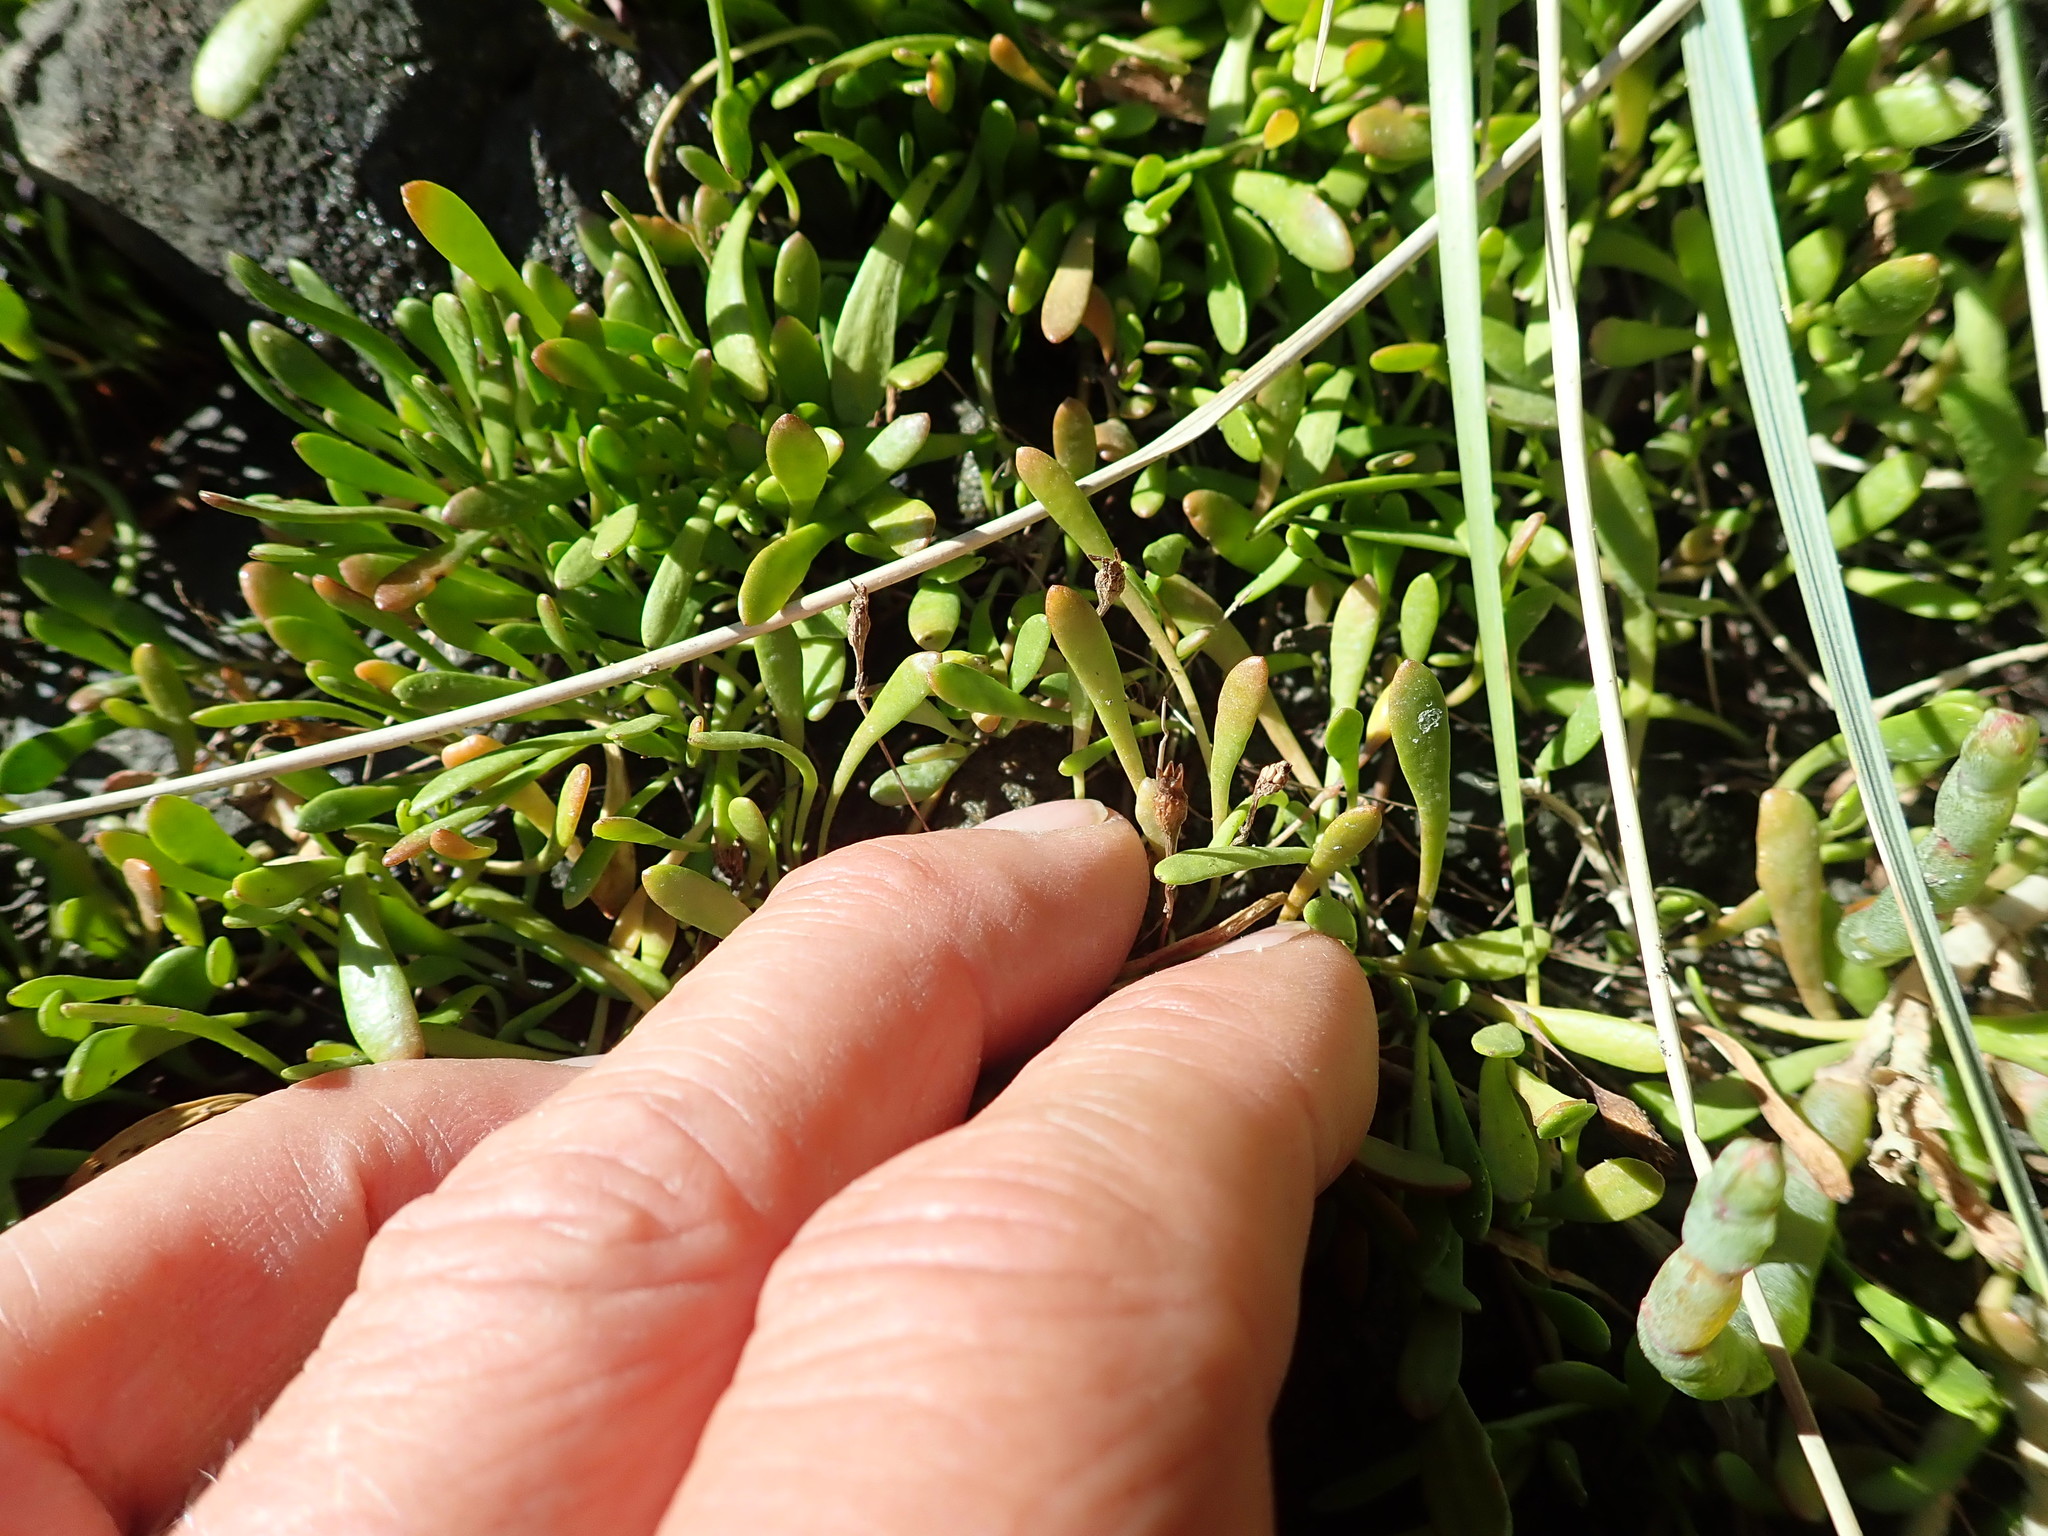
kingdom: Plantae
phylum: Tracheophyta
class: Magnoliopsida
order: Asterales
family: Goodeniaceae
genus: Goodenia
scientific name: Goodenia radicans
